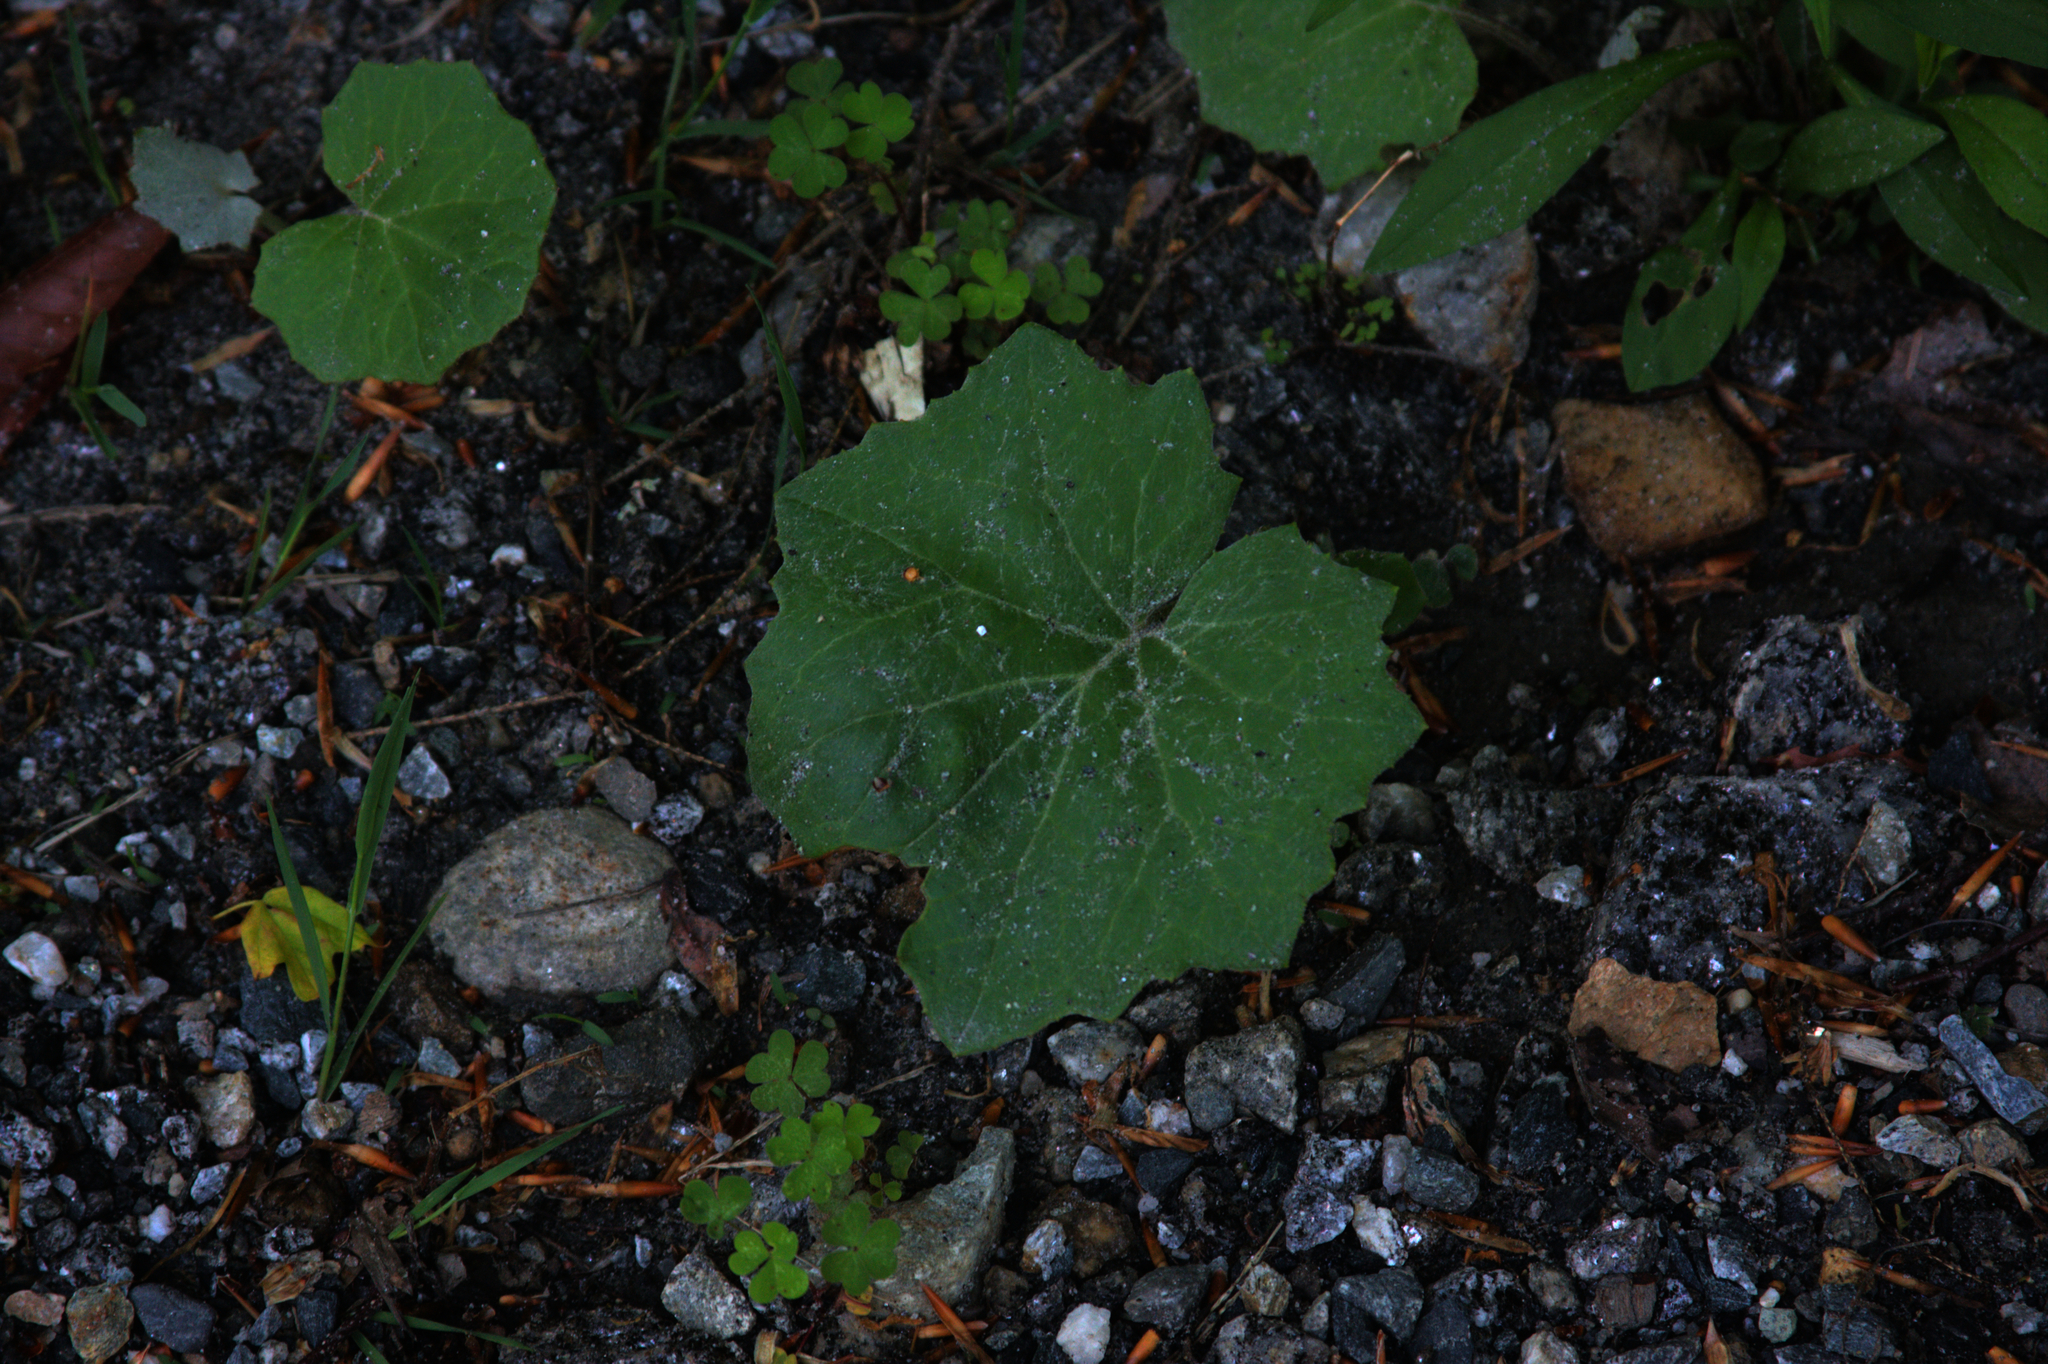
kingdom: Plantae
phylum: Tracheophyta
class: Magnoliopsida
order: Asterales
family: Asteraceae
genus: Tussilago
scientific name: Tussilago farfara
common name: Coltsfoot
